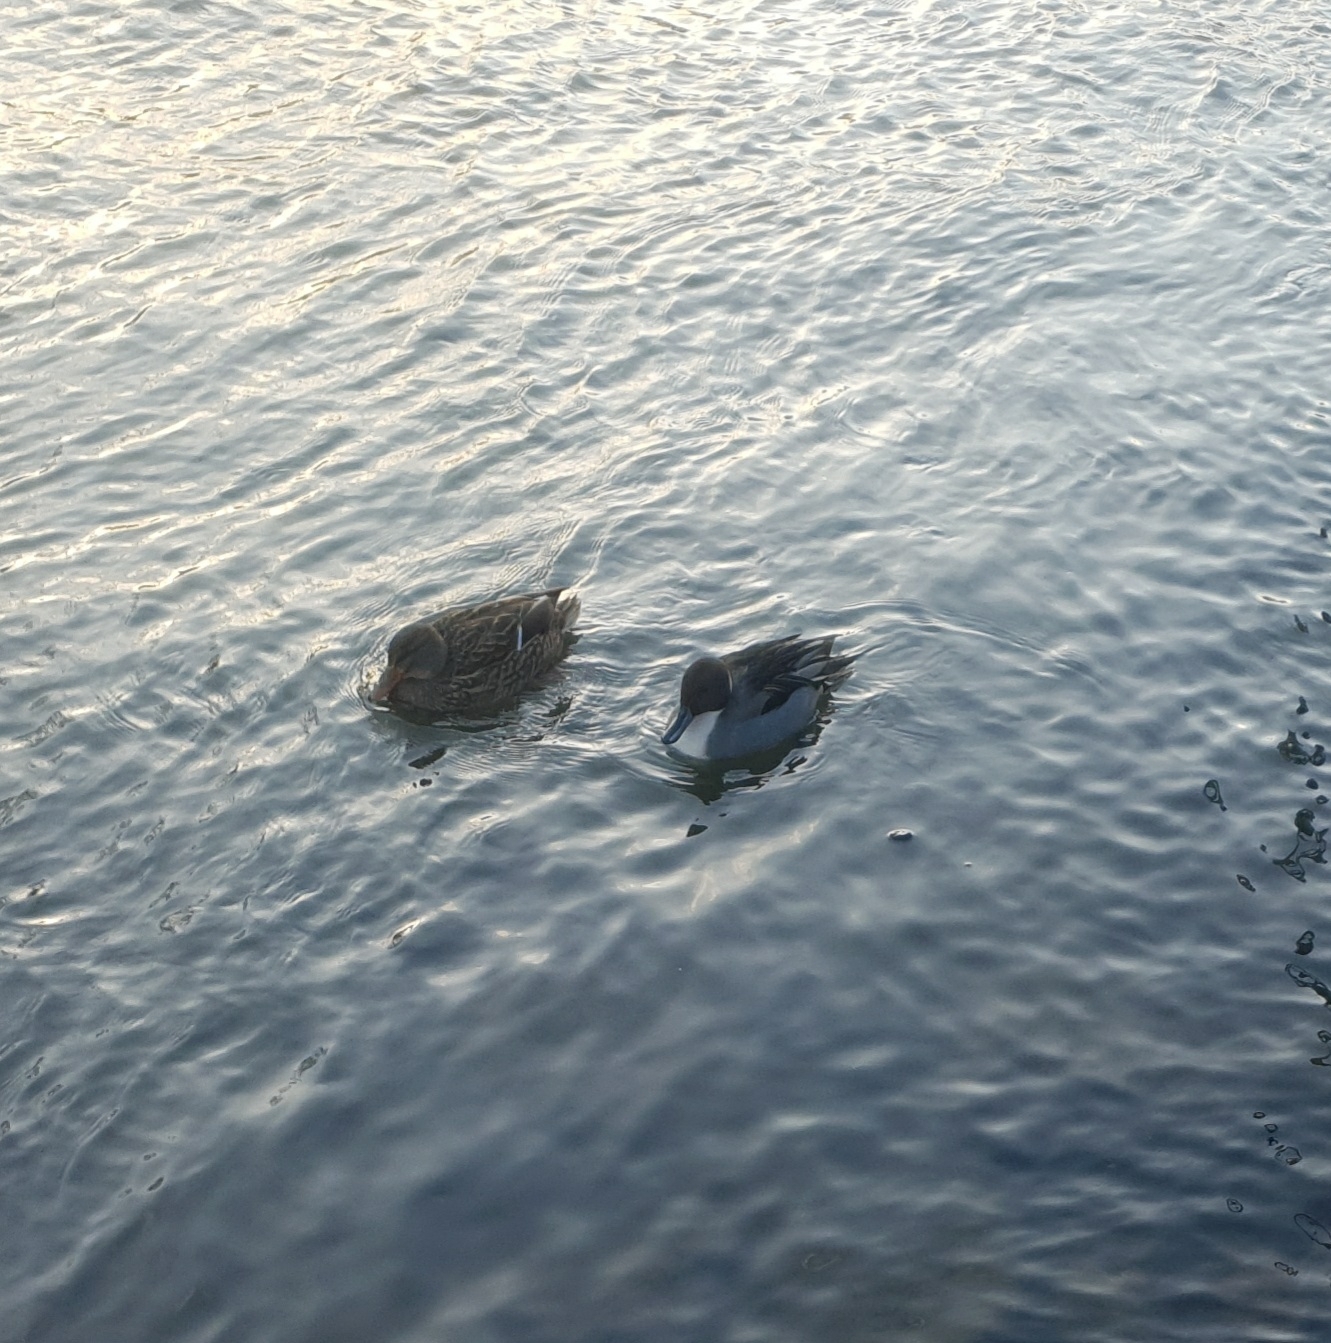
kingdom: Animalia
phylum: Chordata
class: Aves
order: Anseriformes
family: Anatidae
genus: Anas
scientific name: Anas acuta
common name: Northern pintail
